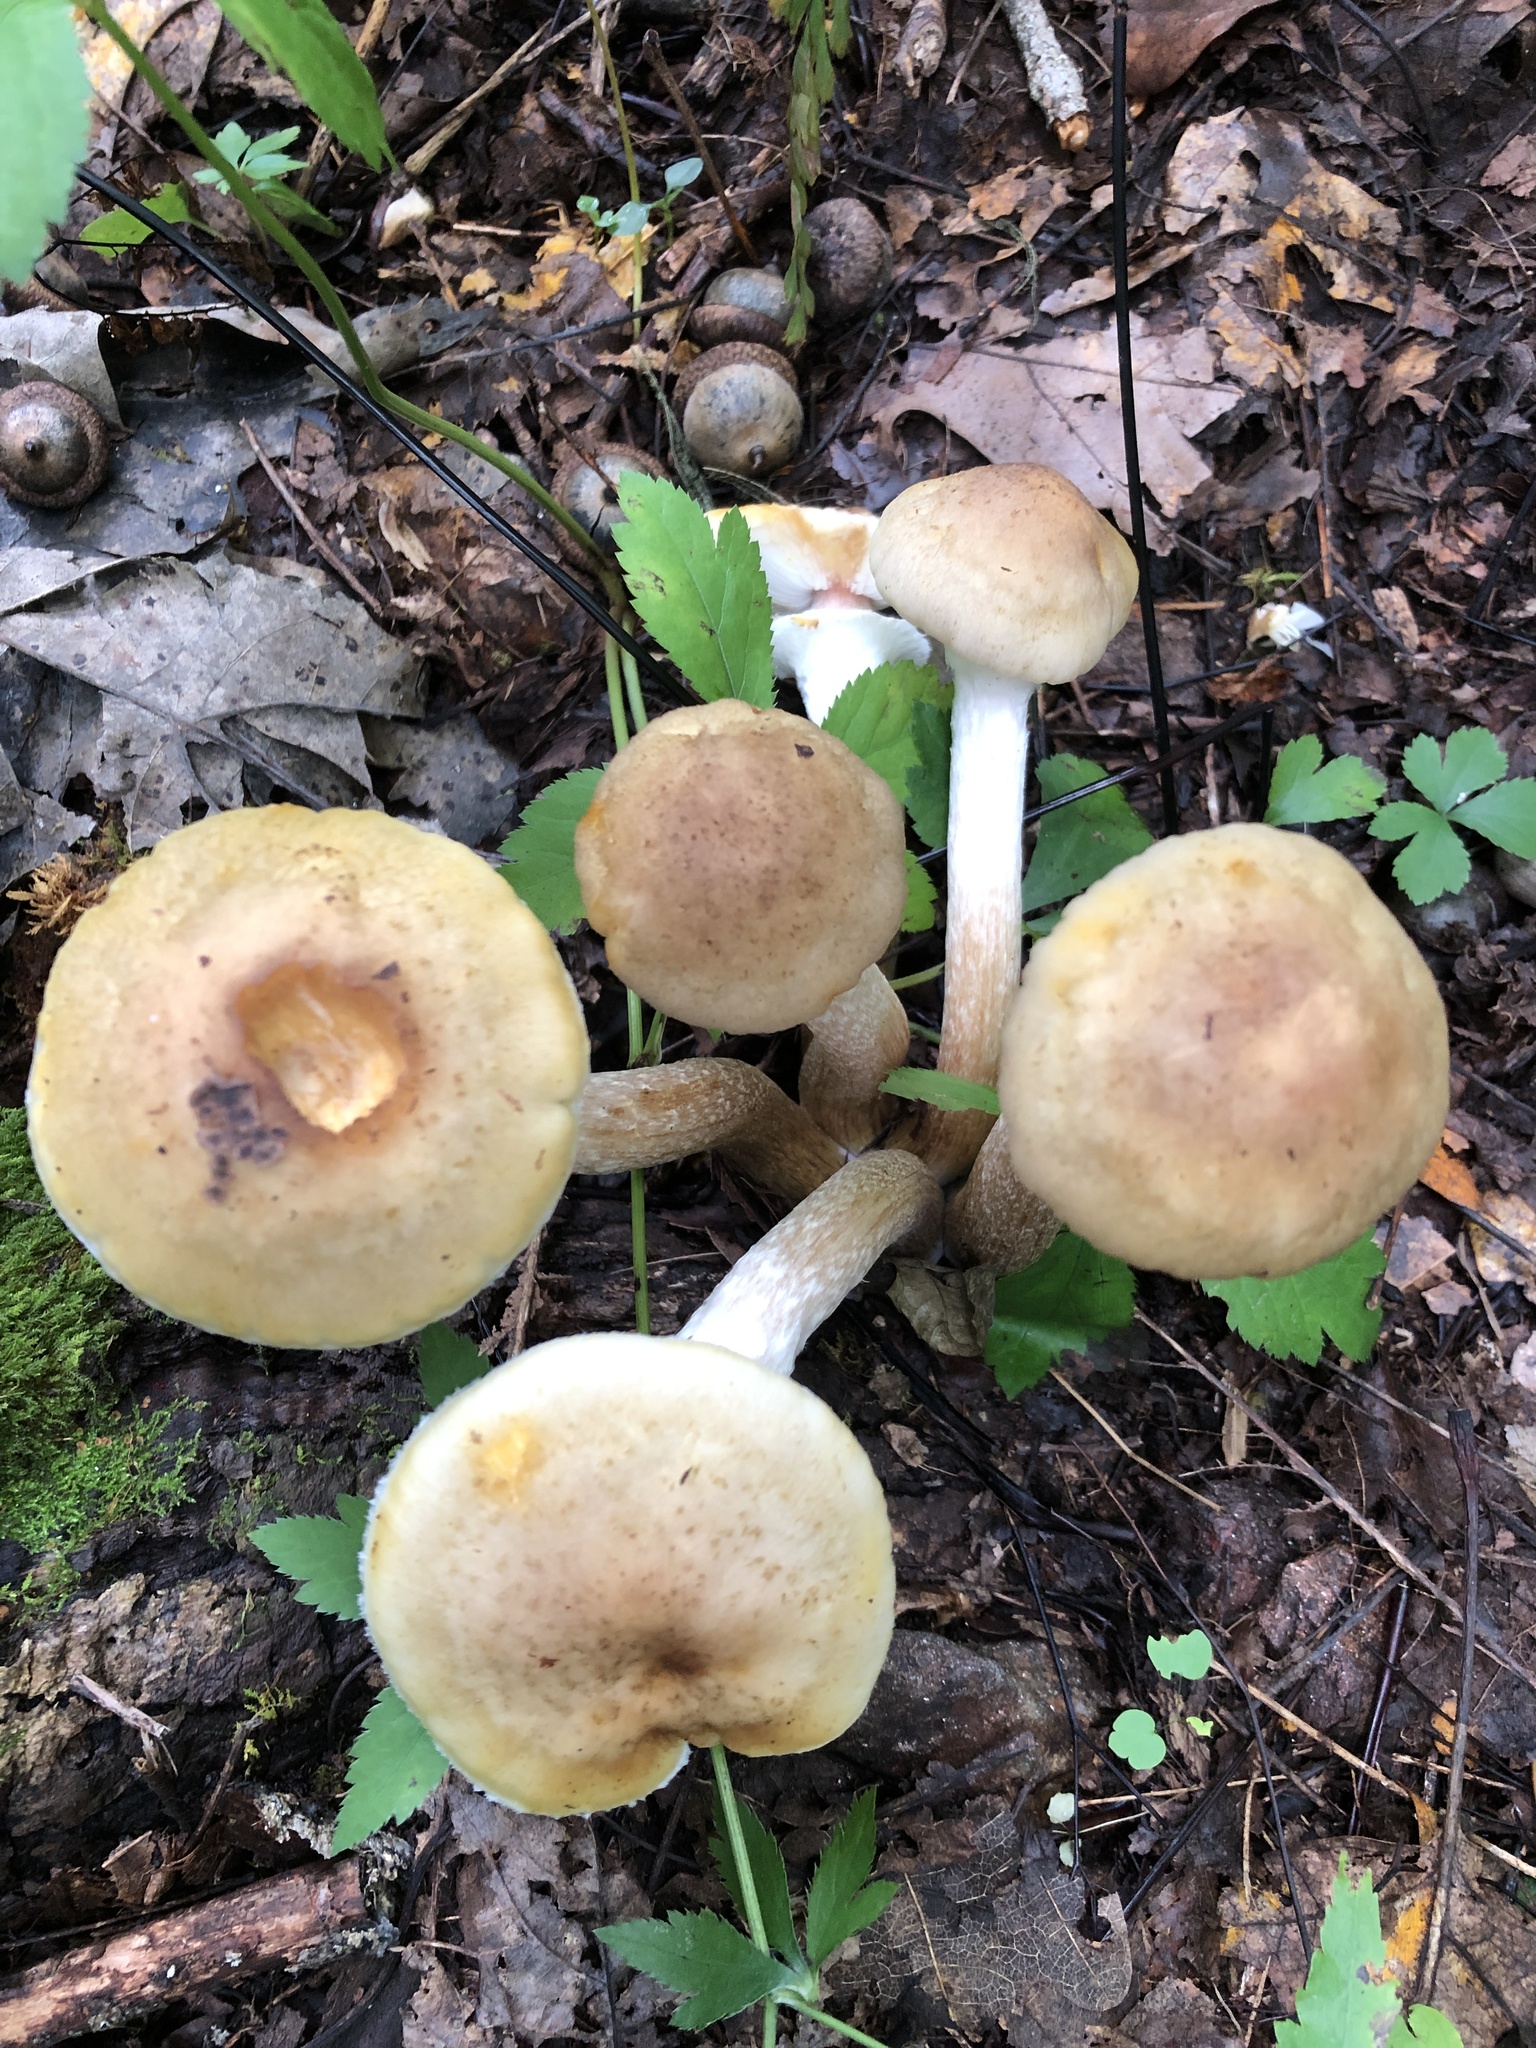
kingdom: Fungi
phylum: Basidiomycota
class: Agaricomycetes
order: Agaricales
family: Physalacriaceae
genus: Armillaria
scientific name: Armillaria mellea
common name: Honey fungus
